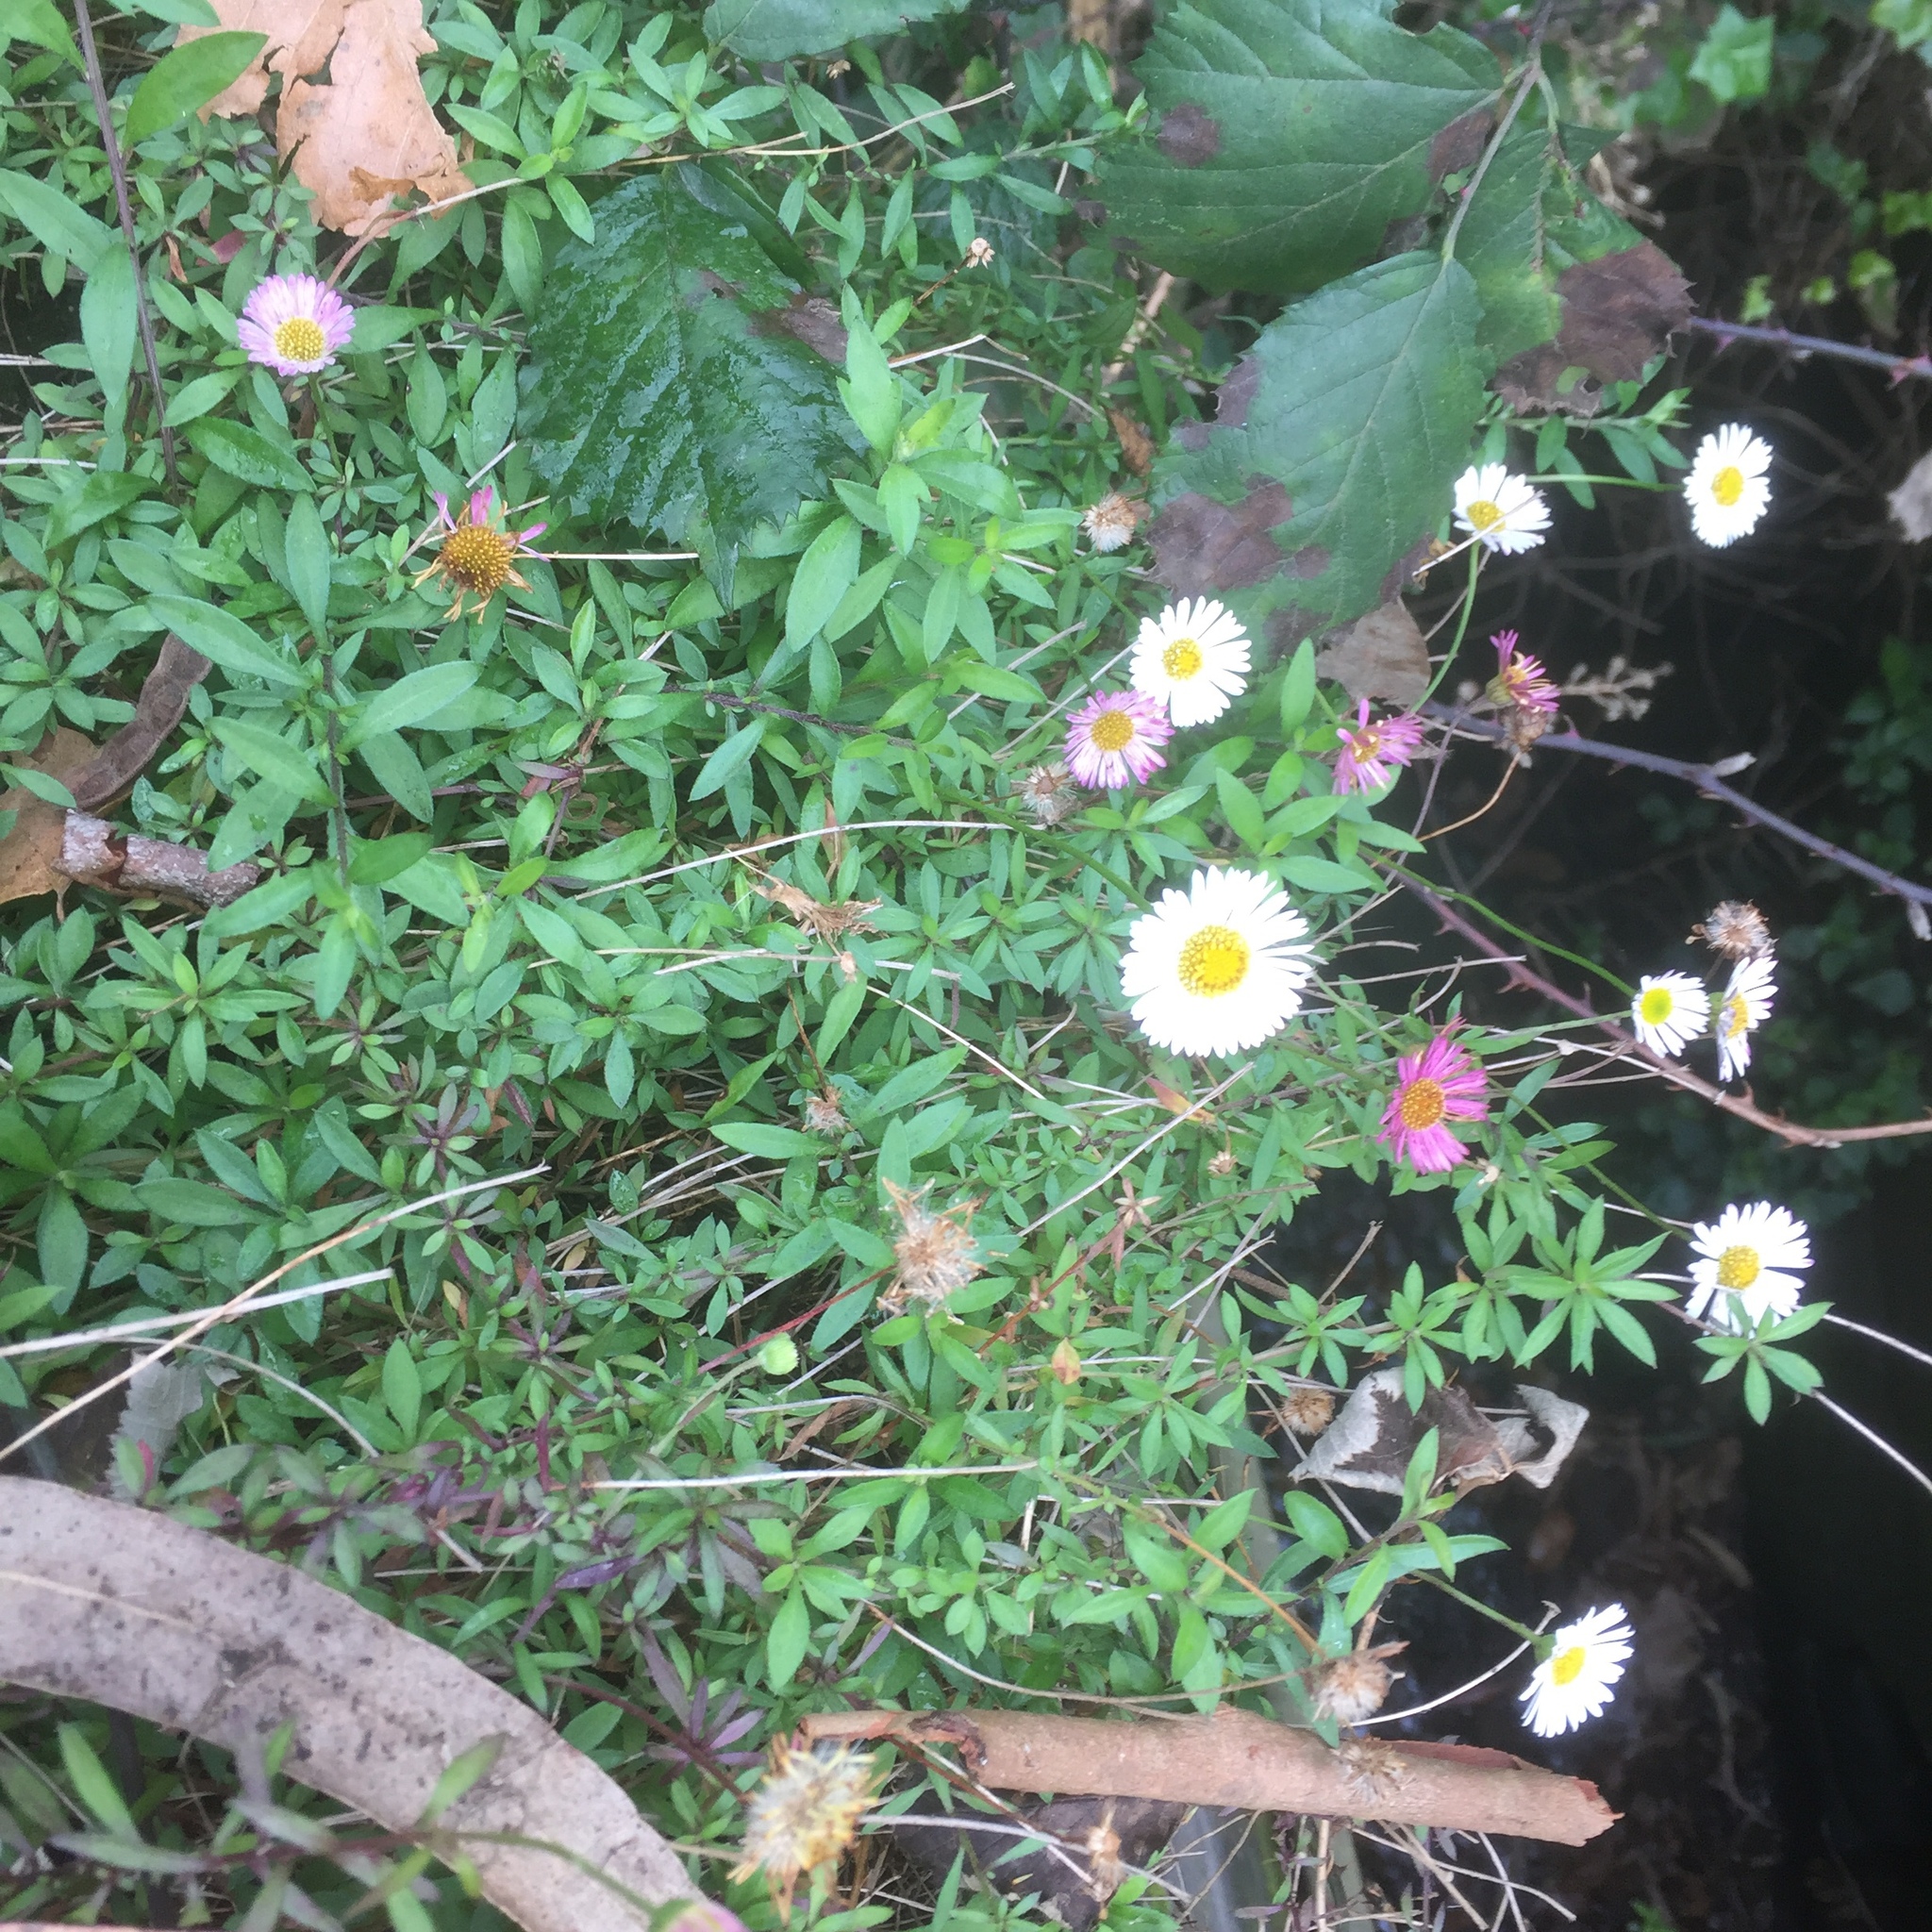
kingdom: Plantae
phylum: Tracheophyta
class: Magnoliopsida
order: Asterales
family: Asteraceae
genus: Erigeron
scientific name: Erigeron karvinskianus
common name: Mexican fleabane
